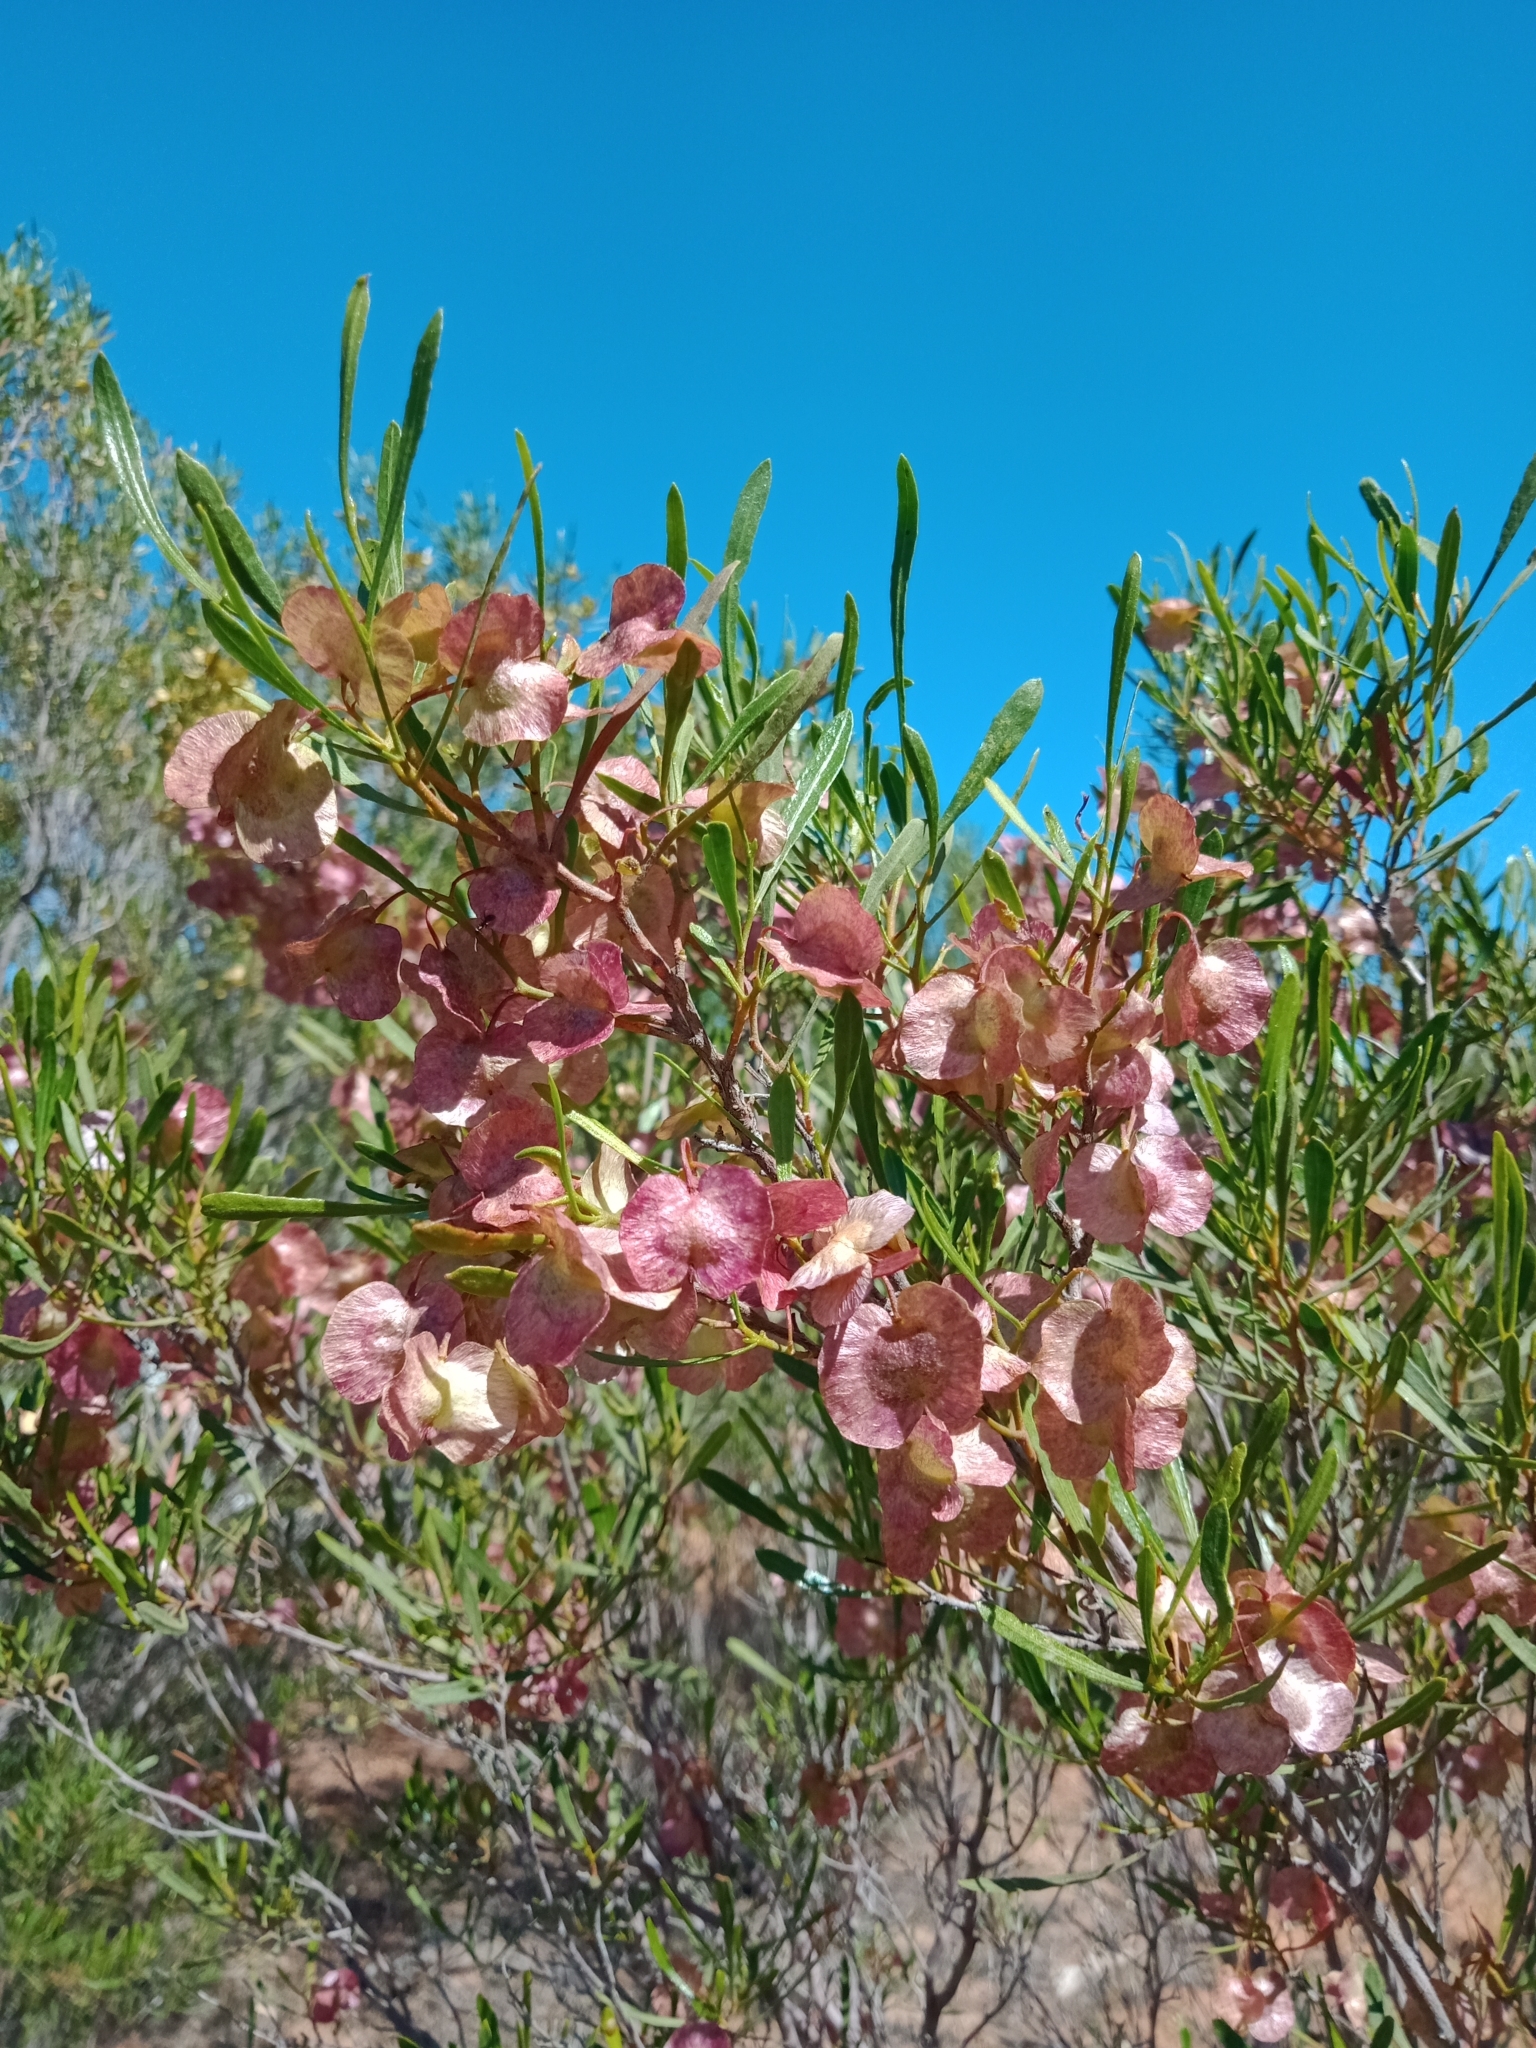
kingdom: Plantae
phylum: Tracheophyta
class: Magnoliopsida
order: Sapindales
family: Sapindaceae
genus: Dodonaea
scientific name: Dodonaea viscosa
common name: Hopbush
